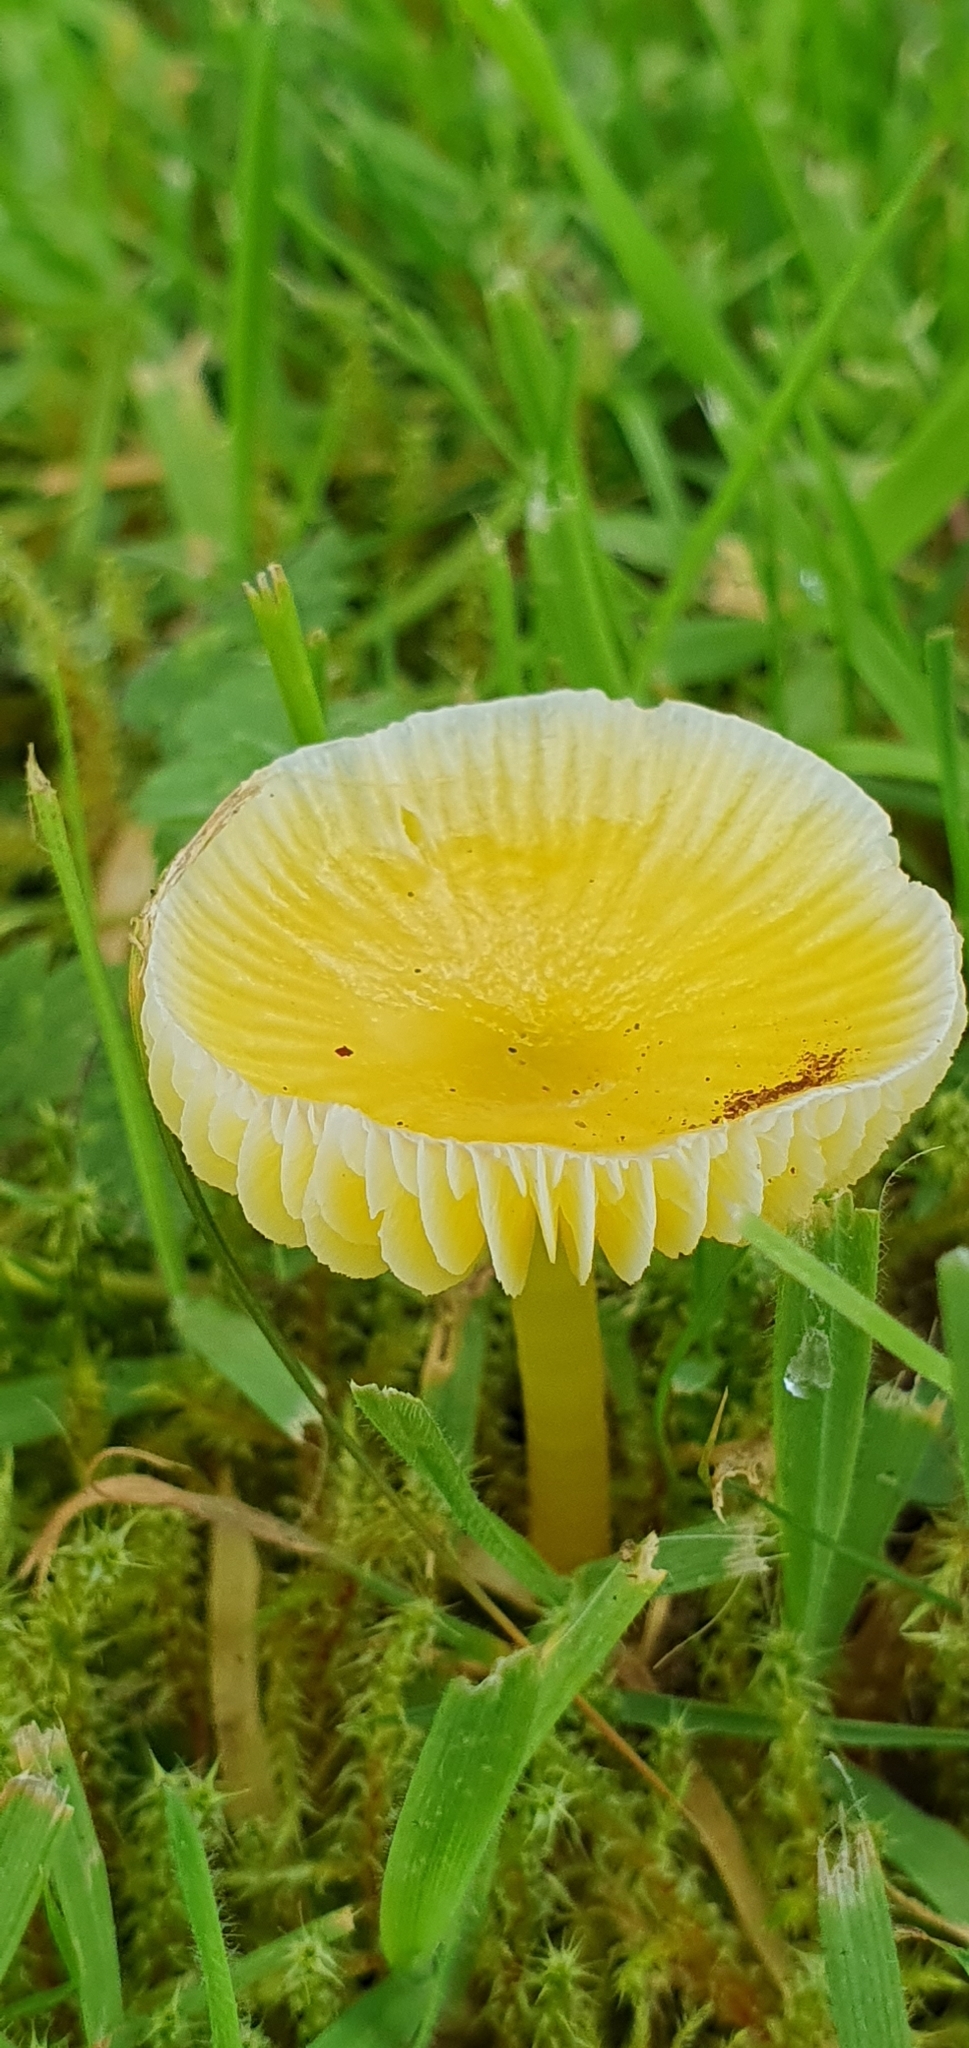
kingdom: Fungi
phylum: Basidiomycota
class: Agaricomycetes
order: Agaricales
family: Hygrophoraceae
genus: Hygrocybe
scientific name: Hygrocybe ceracea
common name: Butter waxcap
